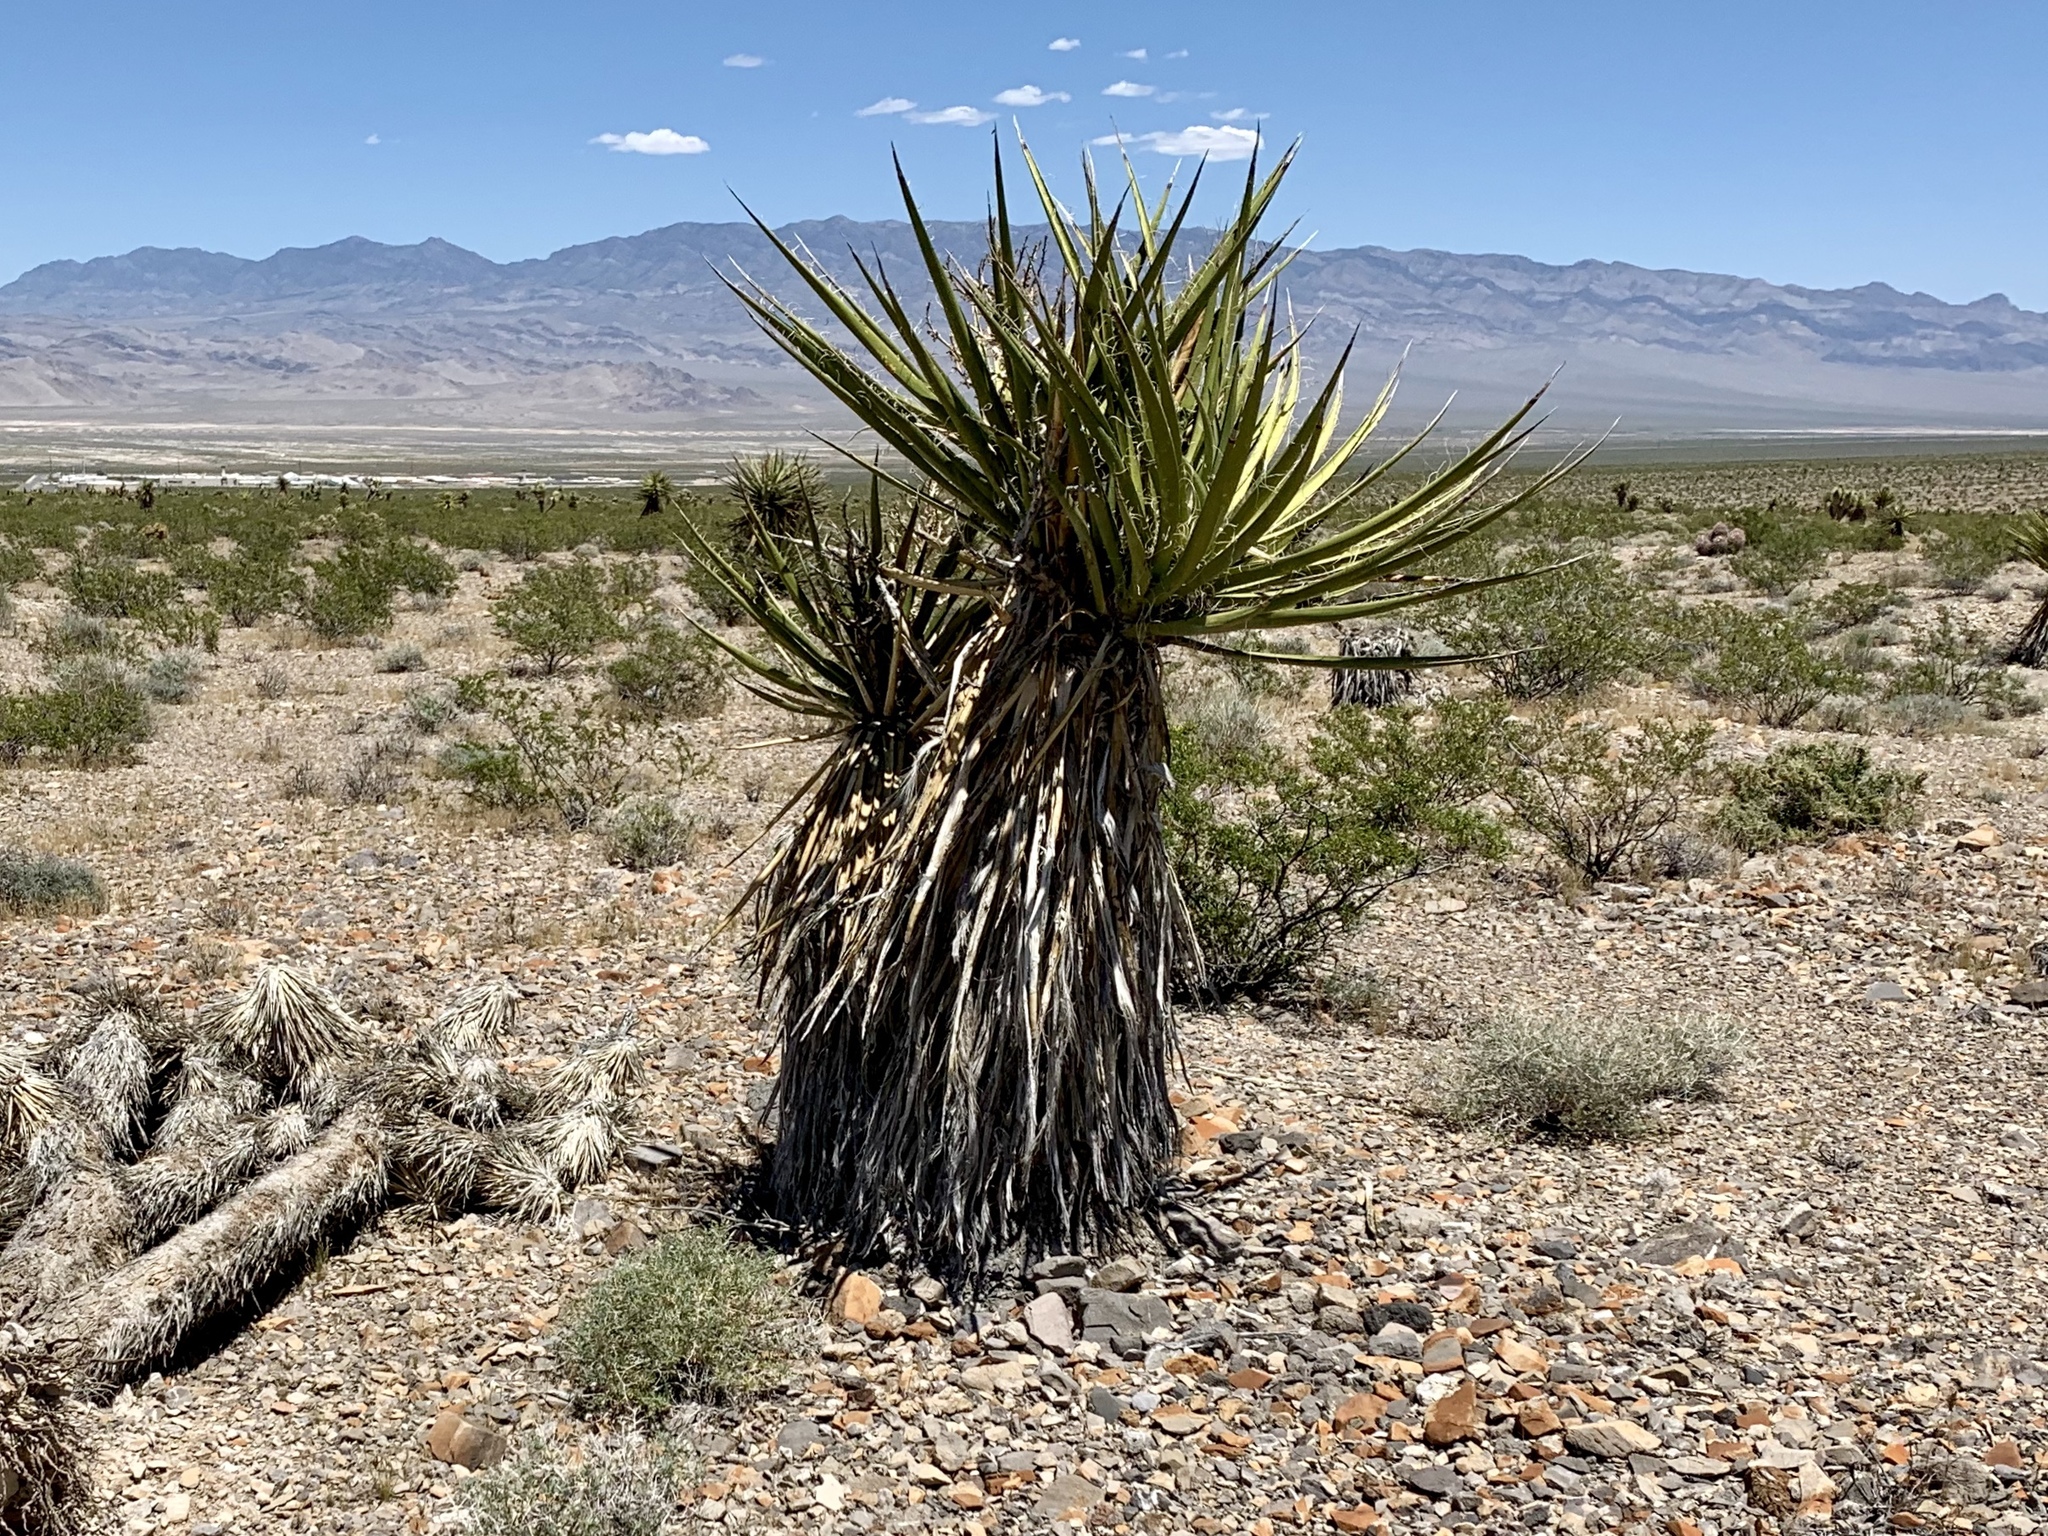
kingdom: Plantae
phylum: Tracheophyta
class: Liliopsida
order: Asparagales
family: Asparagaceae
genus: Yucca
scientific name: Yucca schidigera
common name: Mojave yucca
